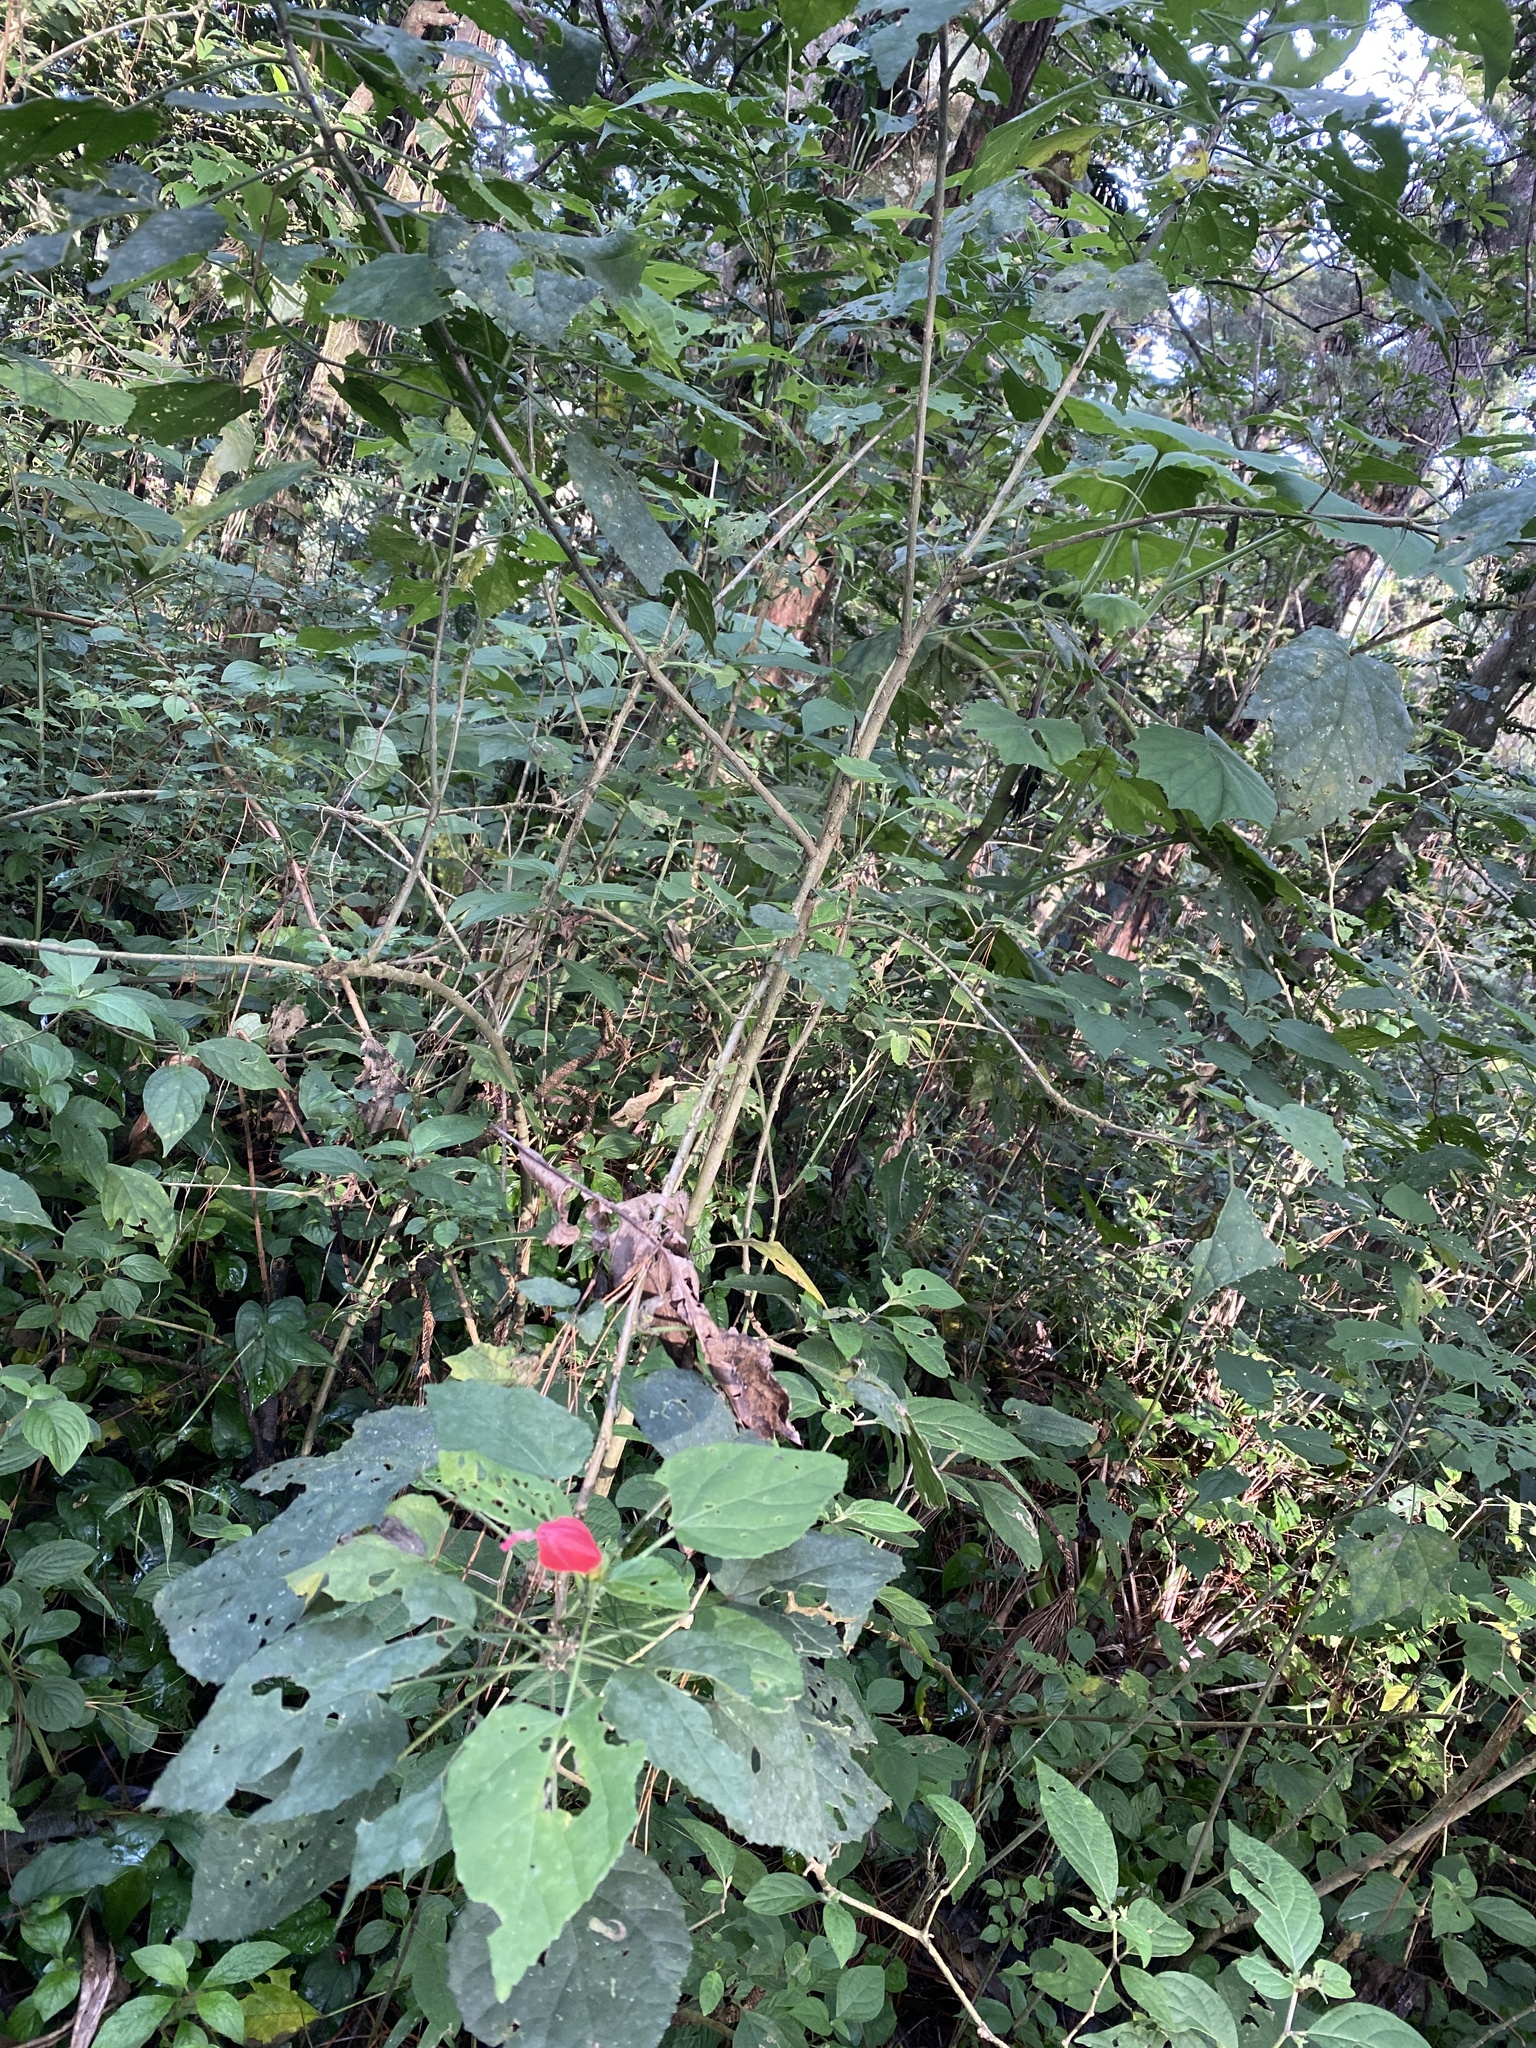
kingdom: Plantae
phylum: Tracheophyta
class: Magnoliopsida
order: Malvales
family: Malvaceae
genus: Malvaviscus
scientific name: Malvaviscus arboreus
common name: Wax mallow
